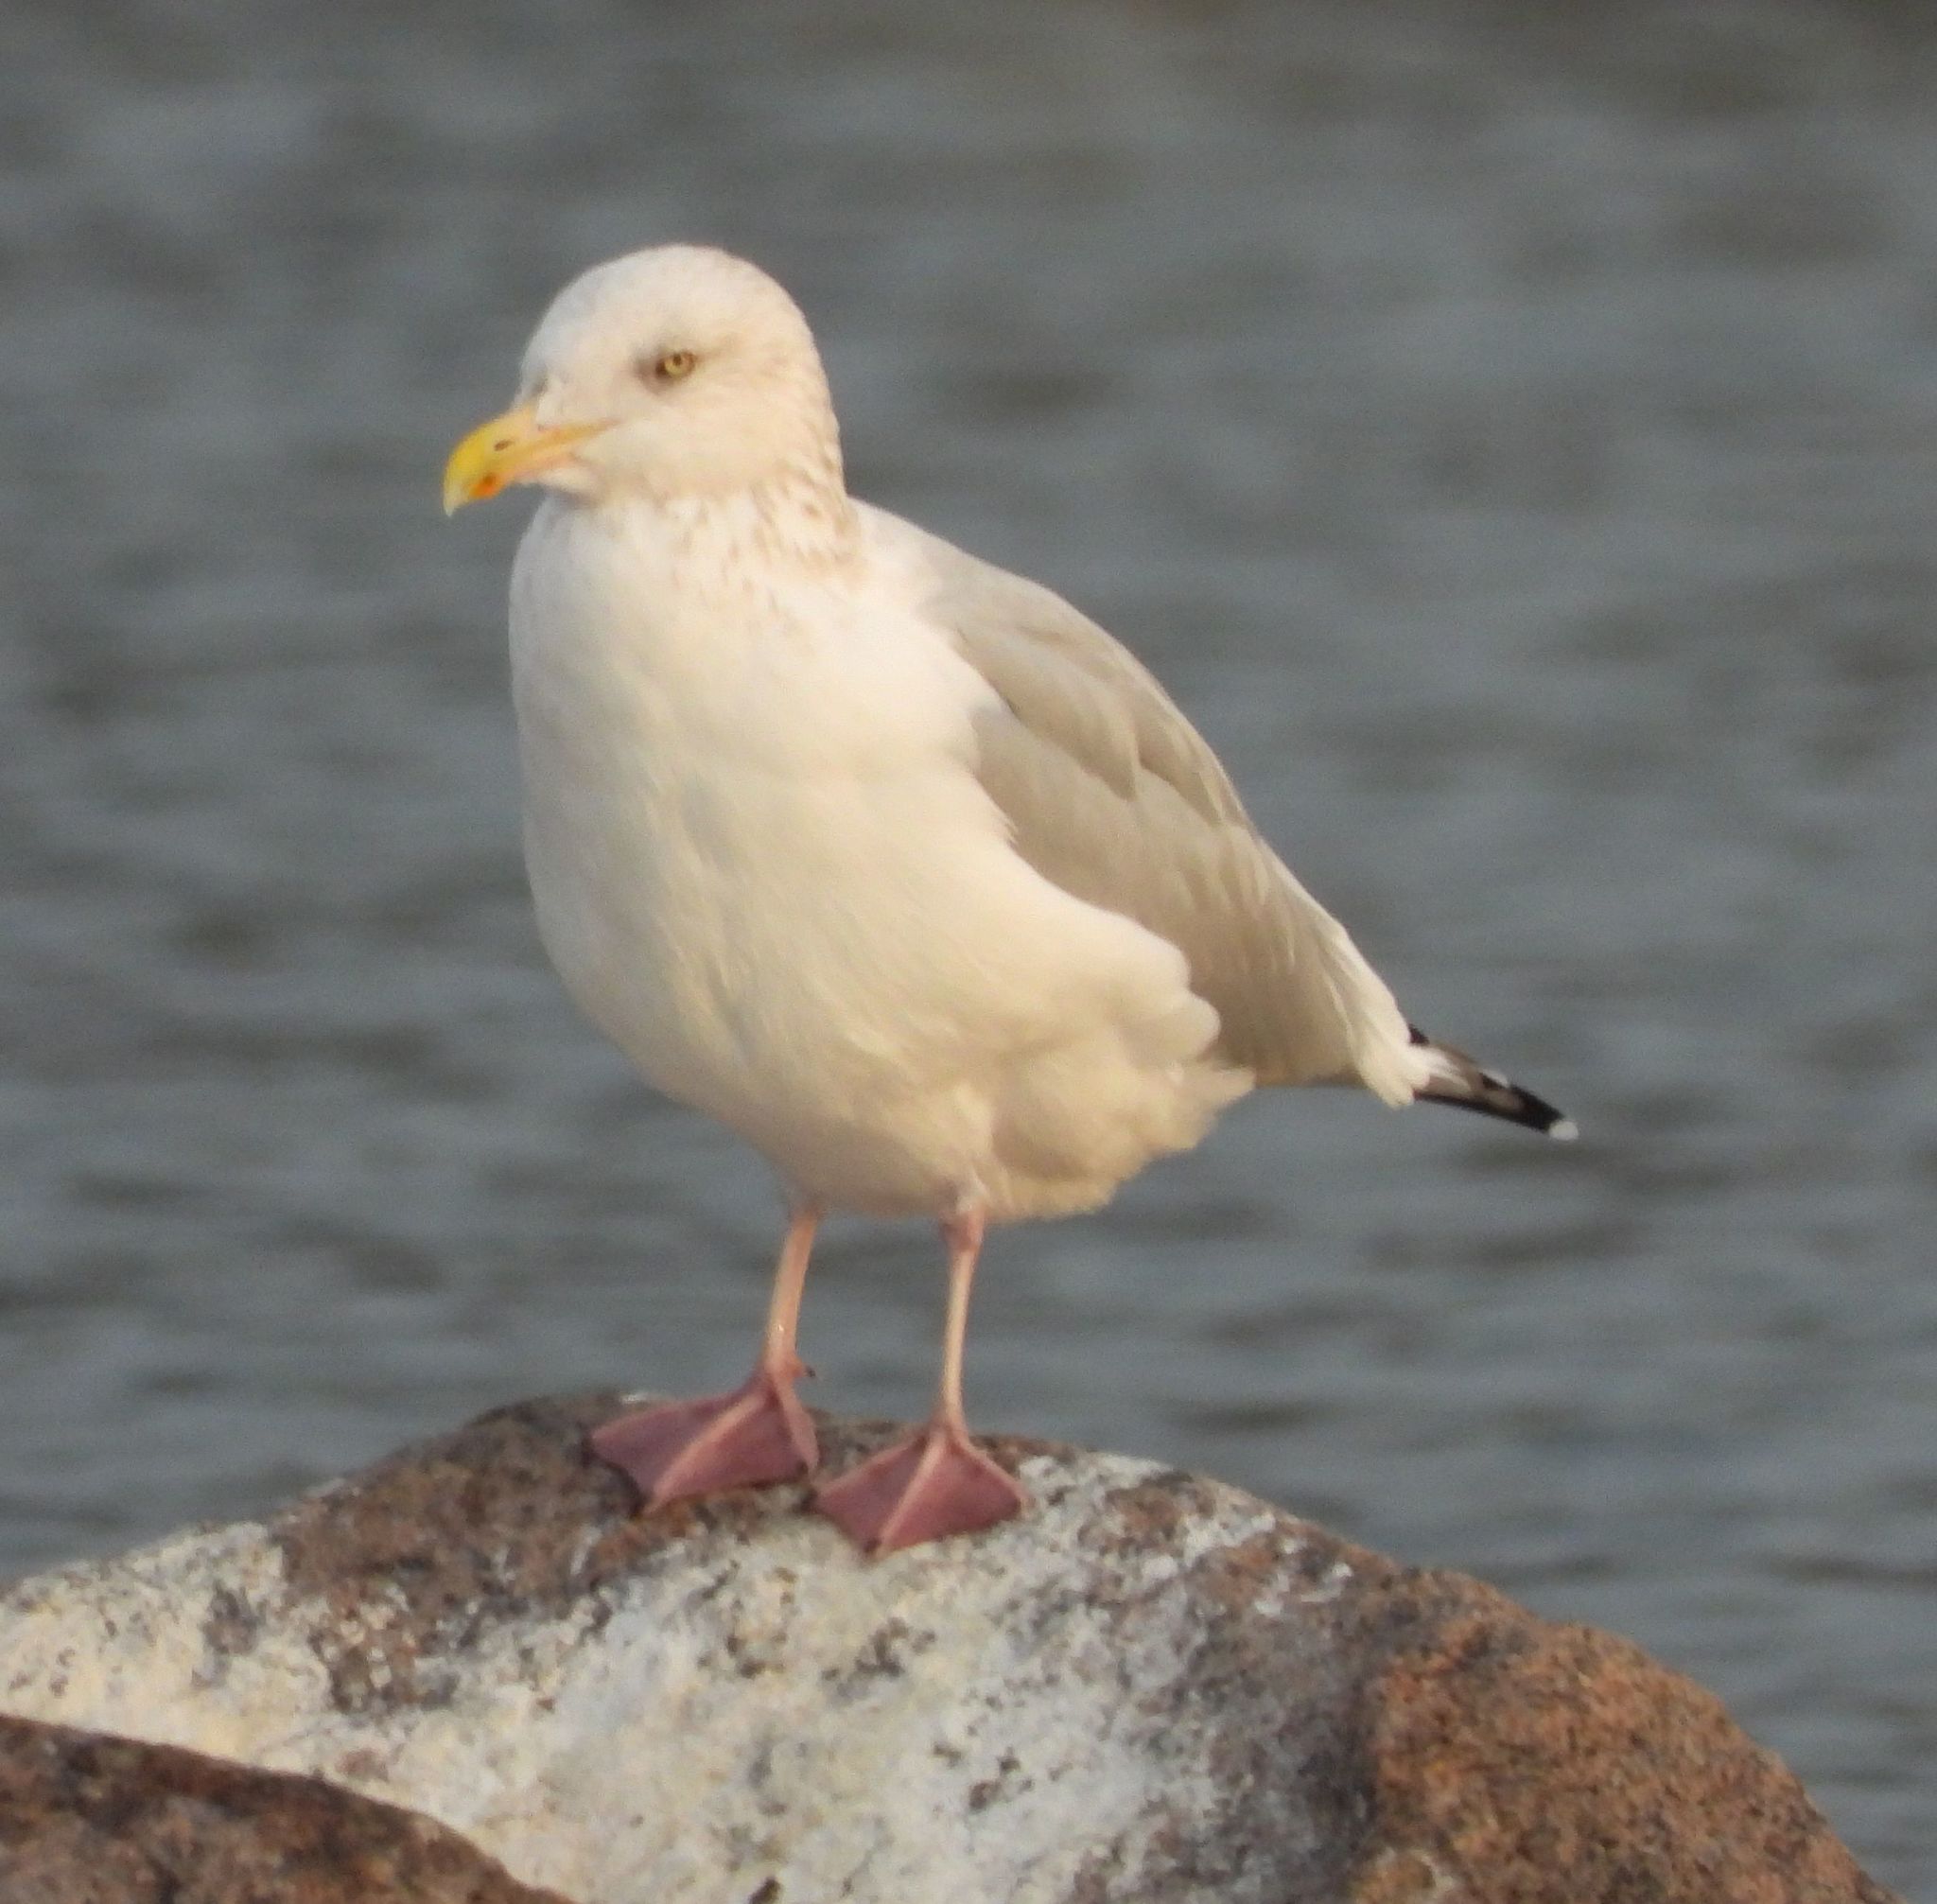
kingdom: Animalia
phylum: Chordata
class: Aves
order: Charadriiformes
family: Laridae
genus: Larus
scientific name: Larus argentatus
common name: Herring gull
